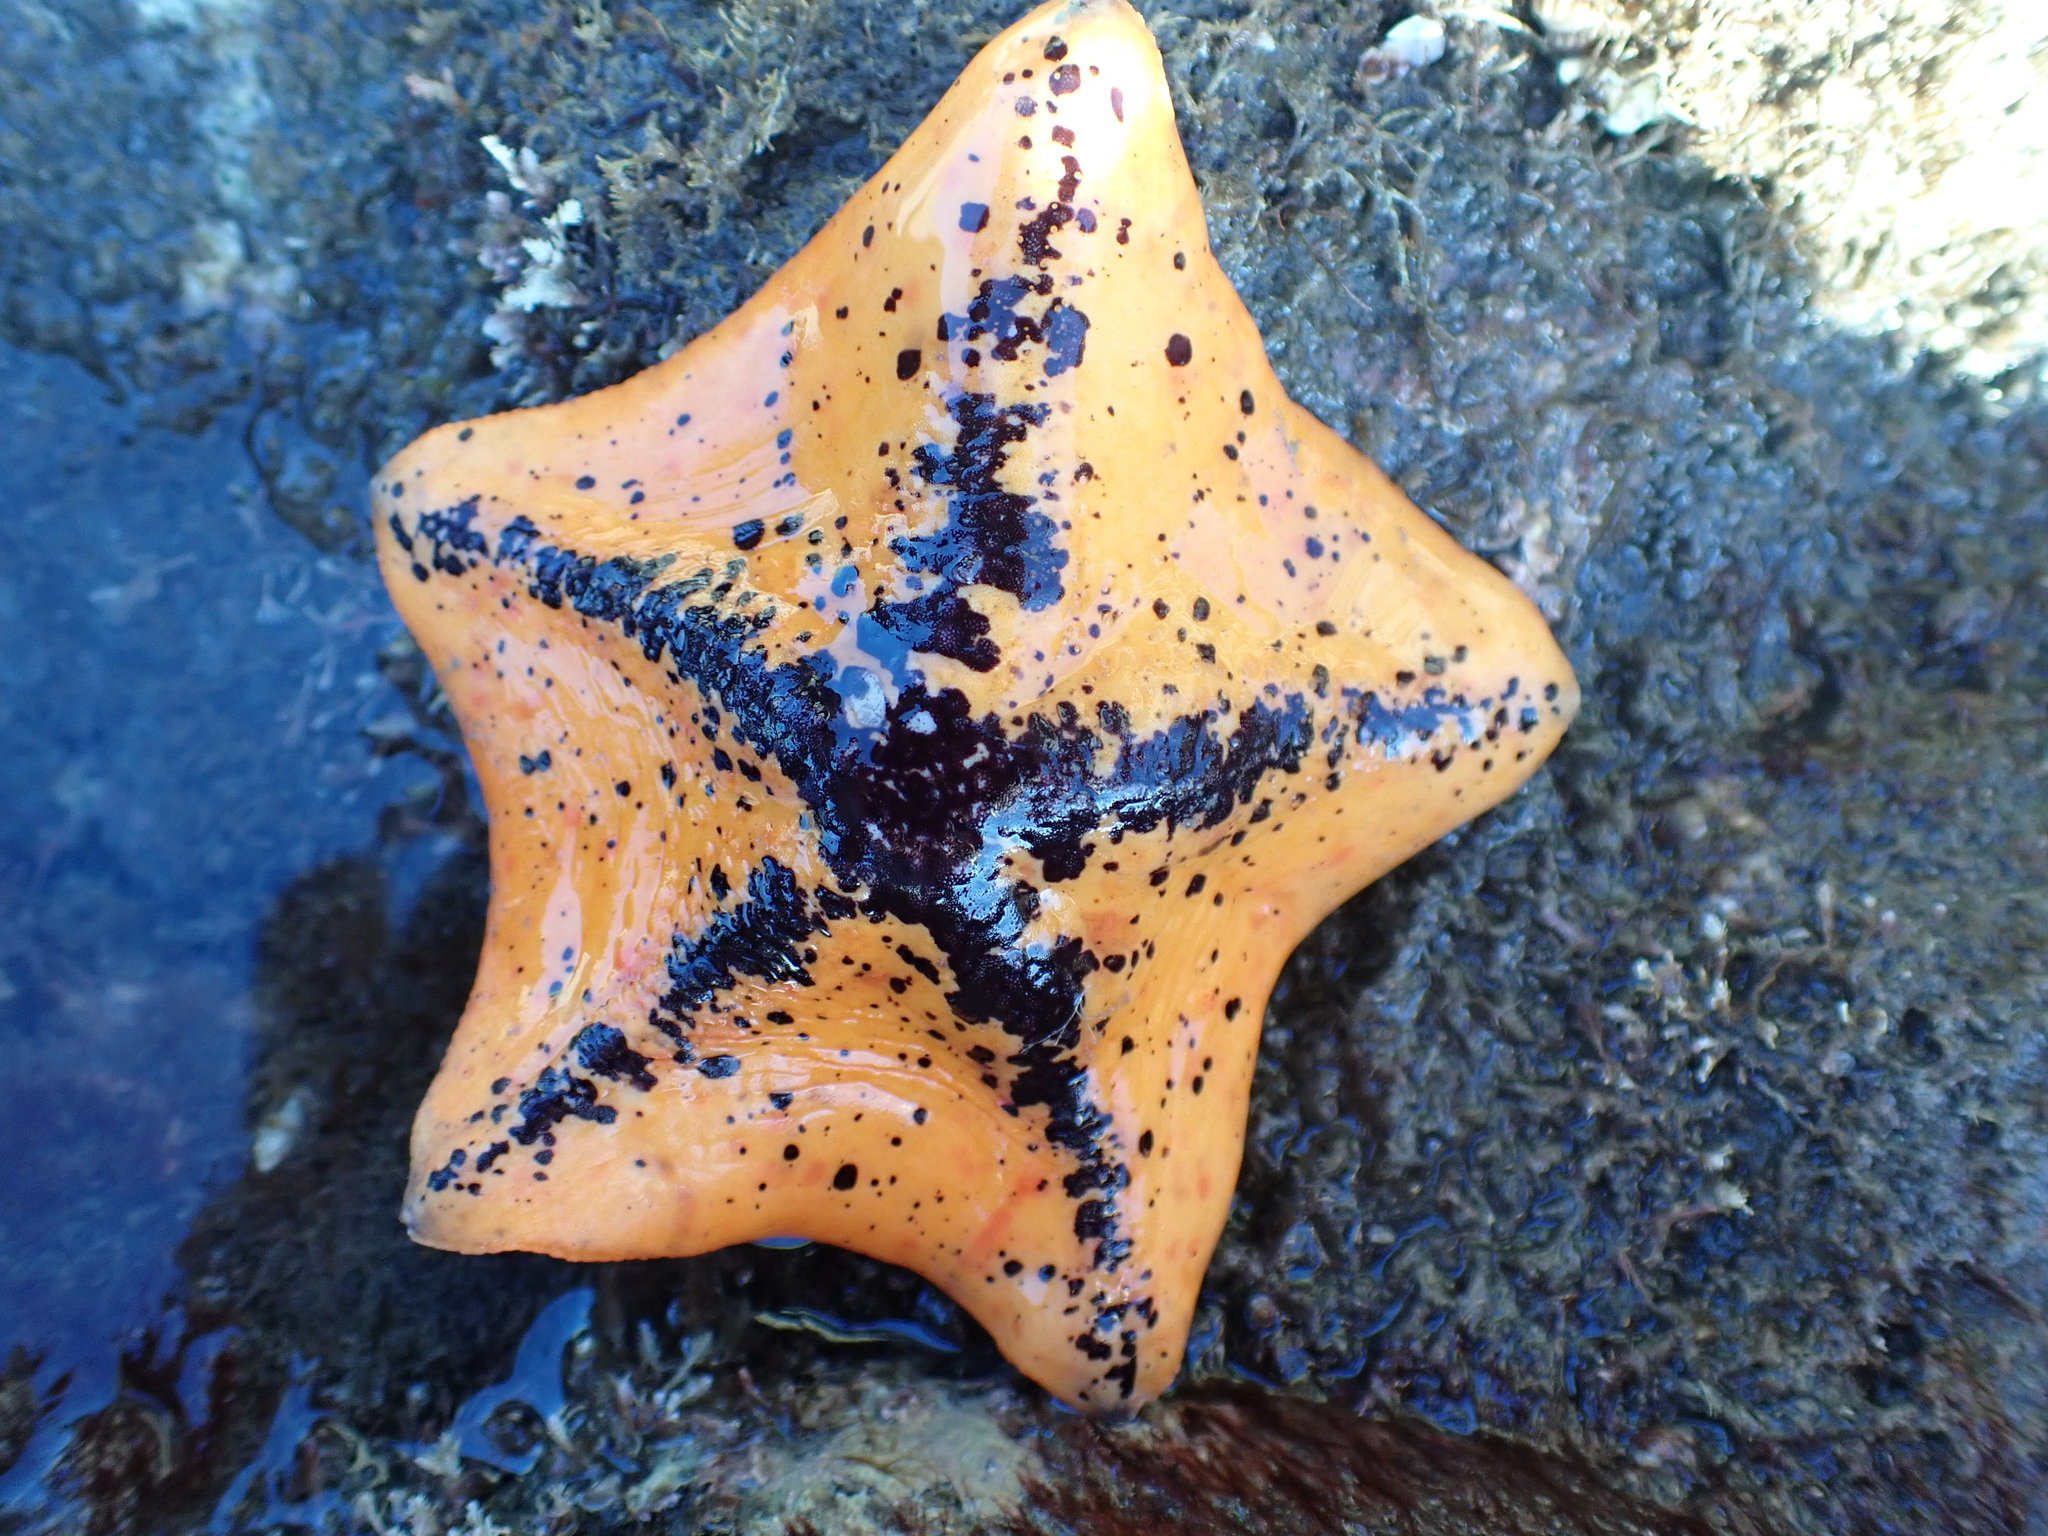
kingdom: Animalia
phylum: Echinodermata
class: Asteroidea
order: Valvatida
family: Asterinidae
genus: Stegnaster
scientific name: Stegnaster inflatus
